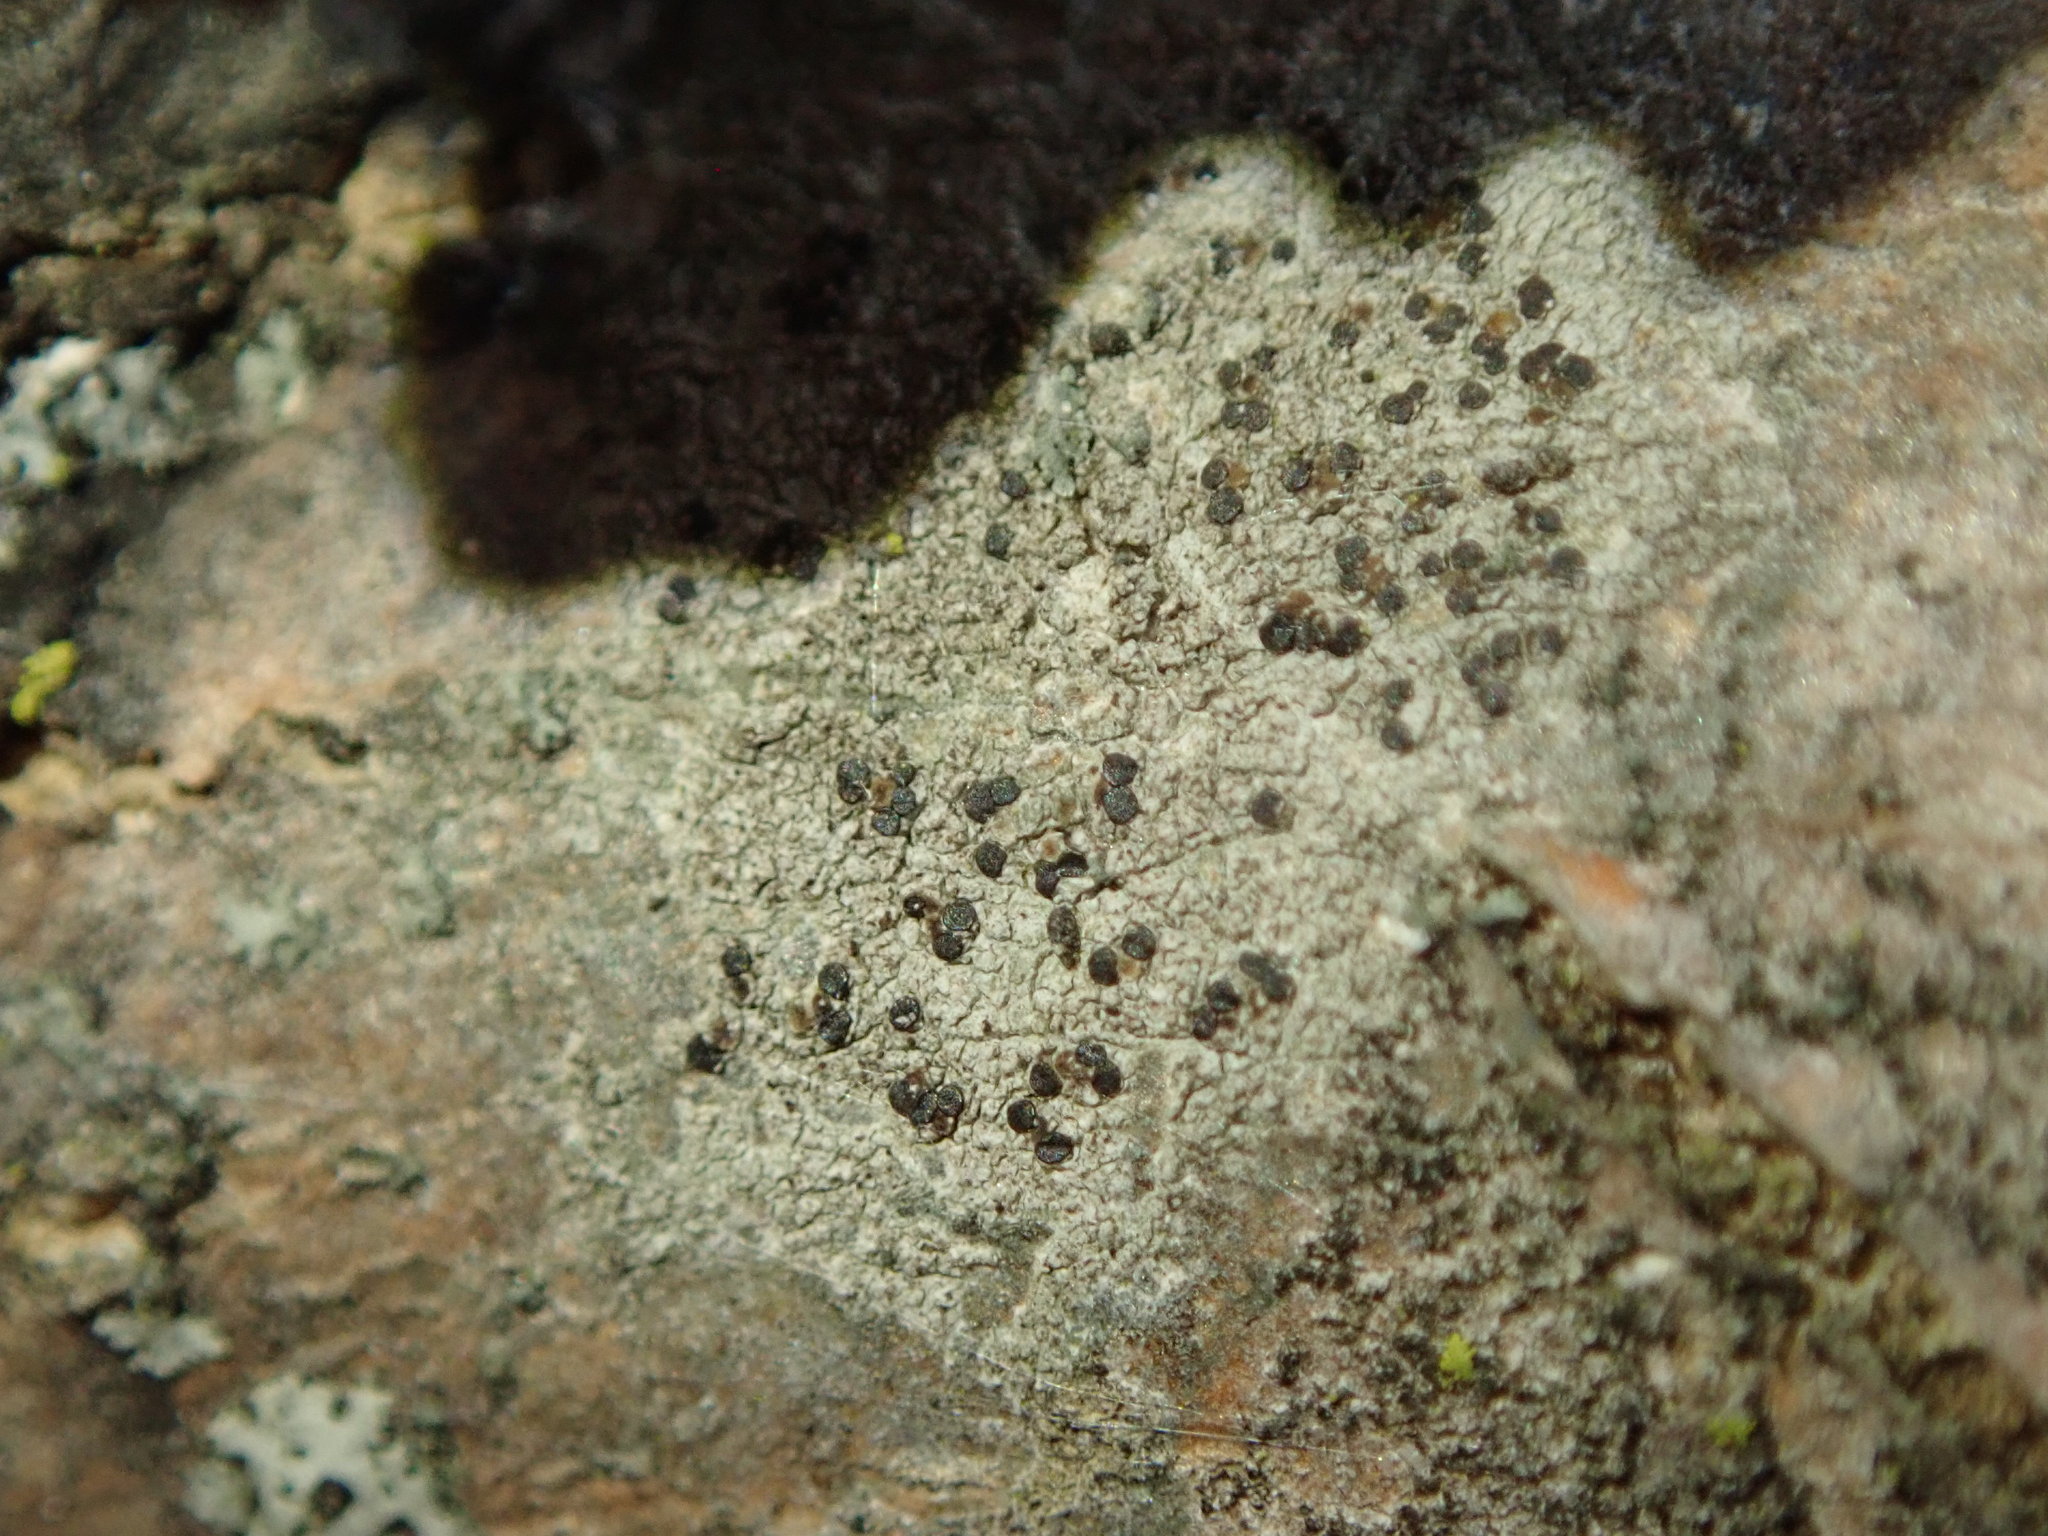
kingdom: Fungi
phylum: Ascomycota
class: Lecanoromycetes
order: Lecanorales
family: Lecanoraceae
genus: Traponora
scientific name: Traponora varians
